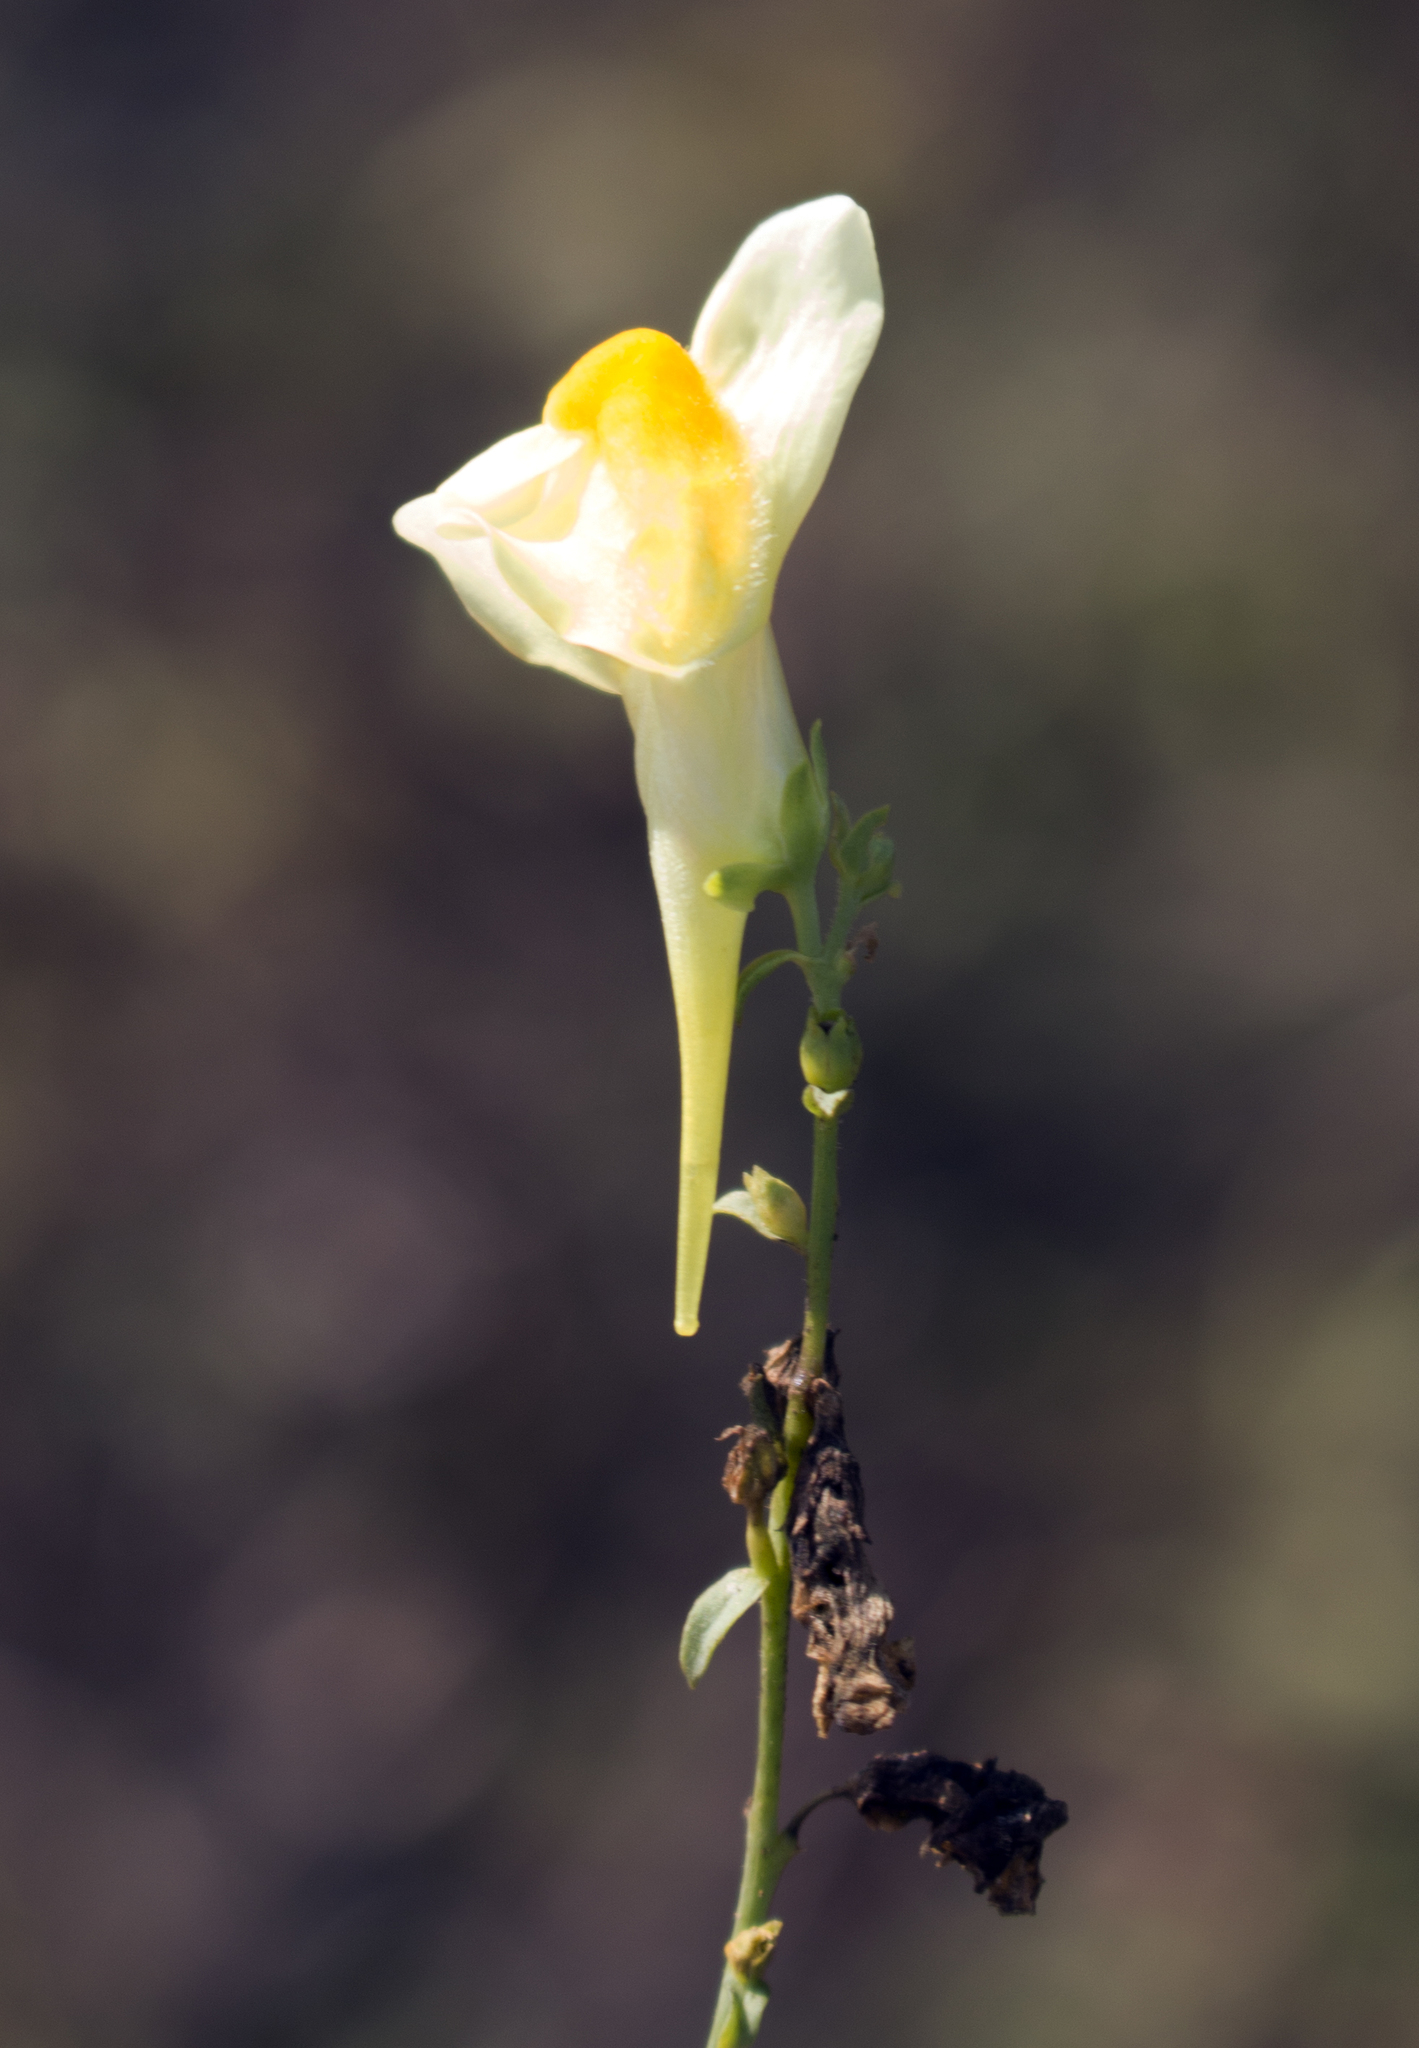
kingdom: Plantae
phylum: Tracheophyta
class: Magnoliopsida
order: Lamiales
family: Plantaginaceae
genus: Linaria
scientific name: Linaria vulgaris
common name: Butter and eggs
